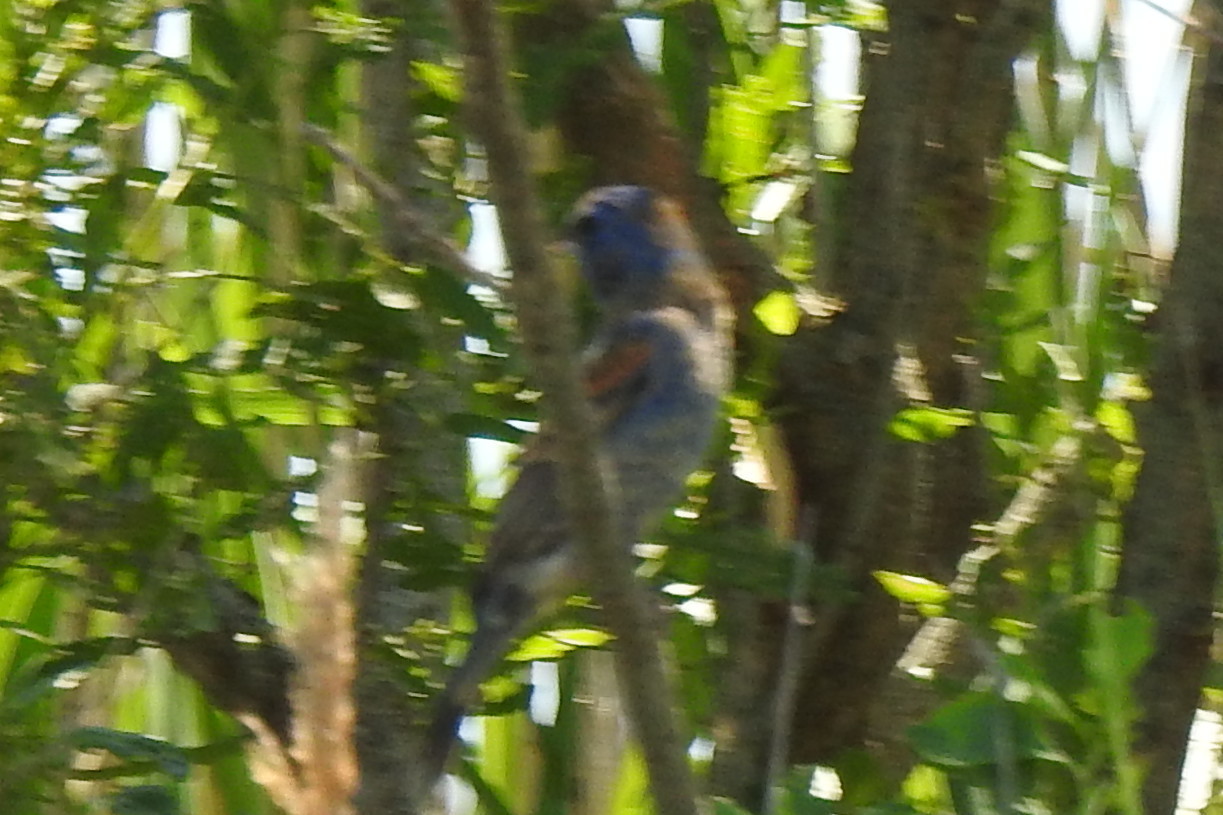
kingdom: Animalia
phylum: Chordata
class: Aves
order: Passeriformes
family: Cardinalidae
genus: Passerina
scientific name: Passerina caerulea
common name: Blue grosbeak
